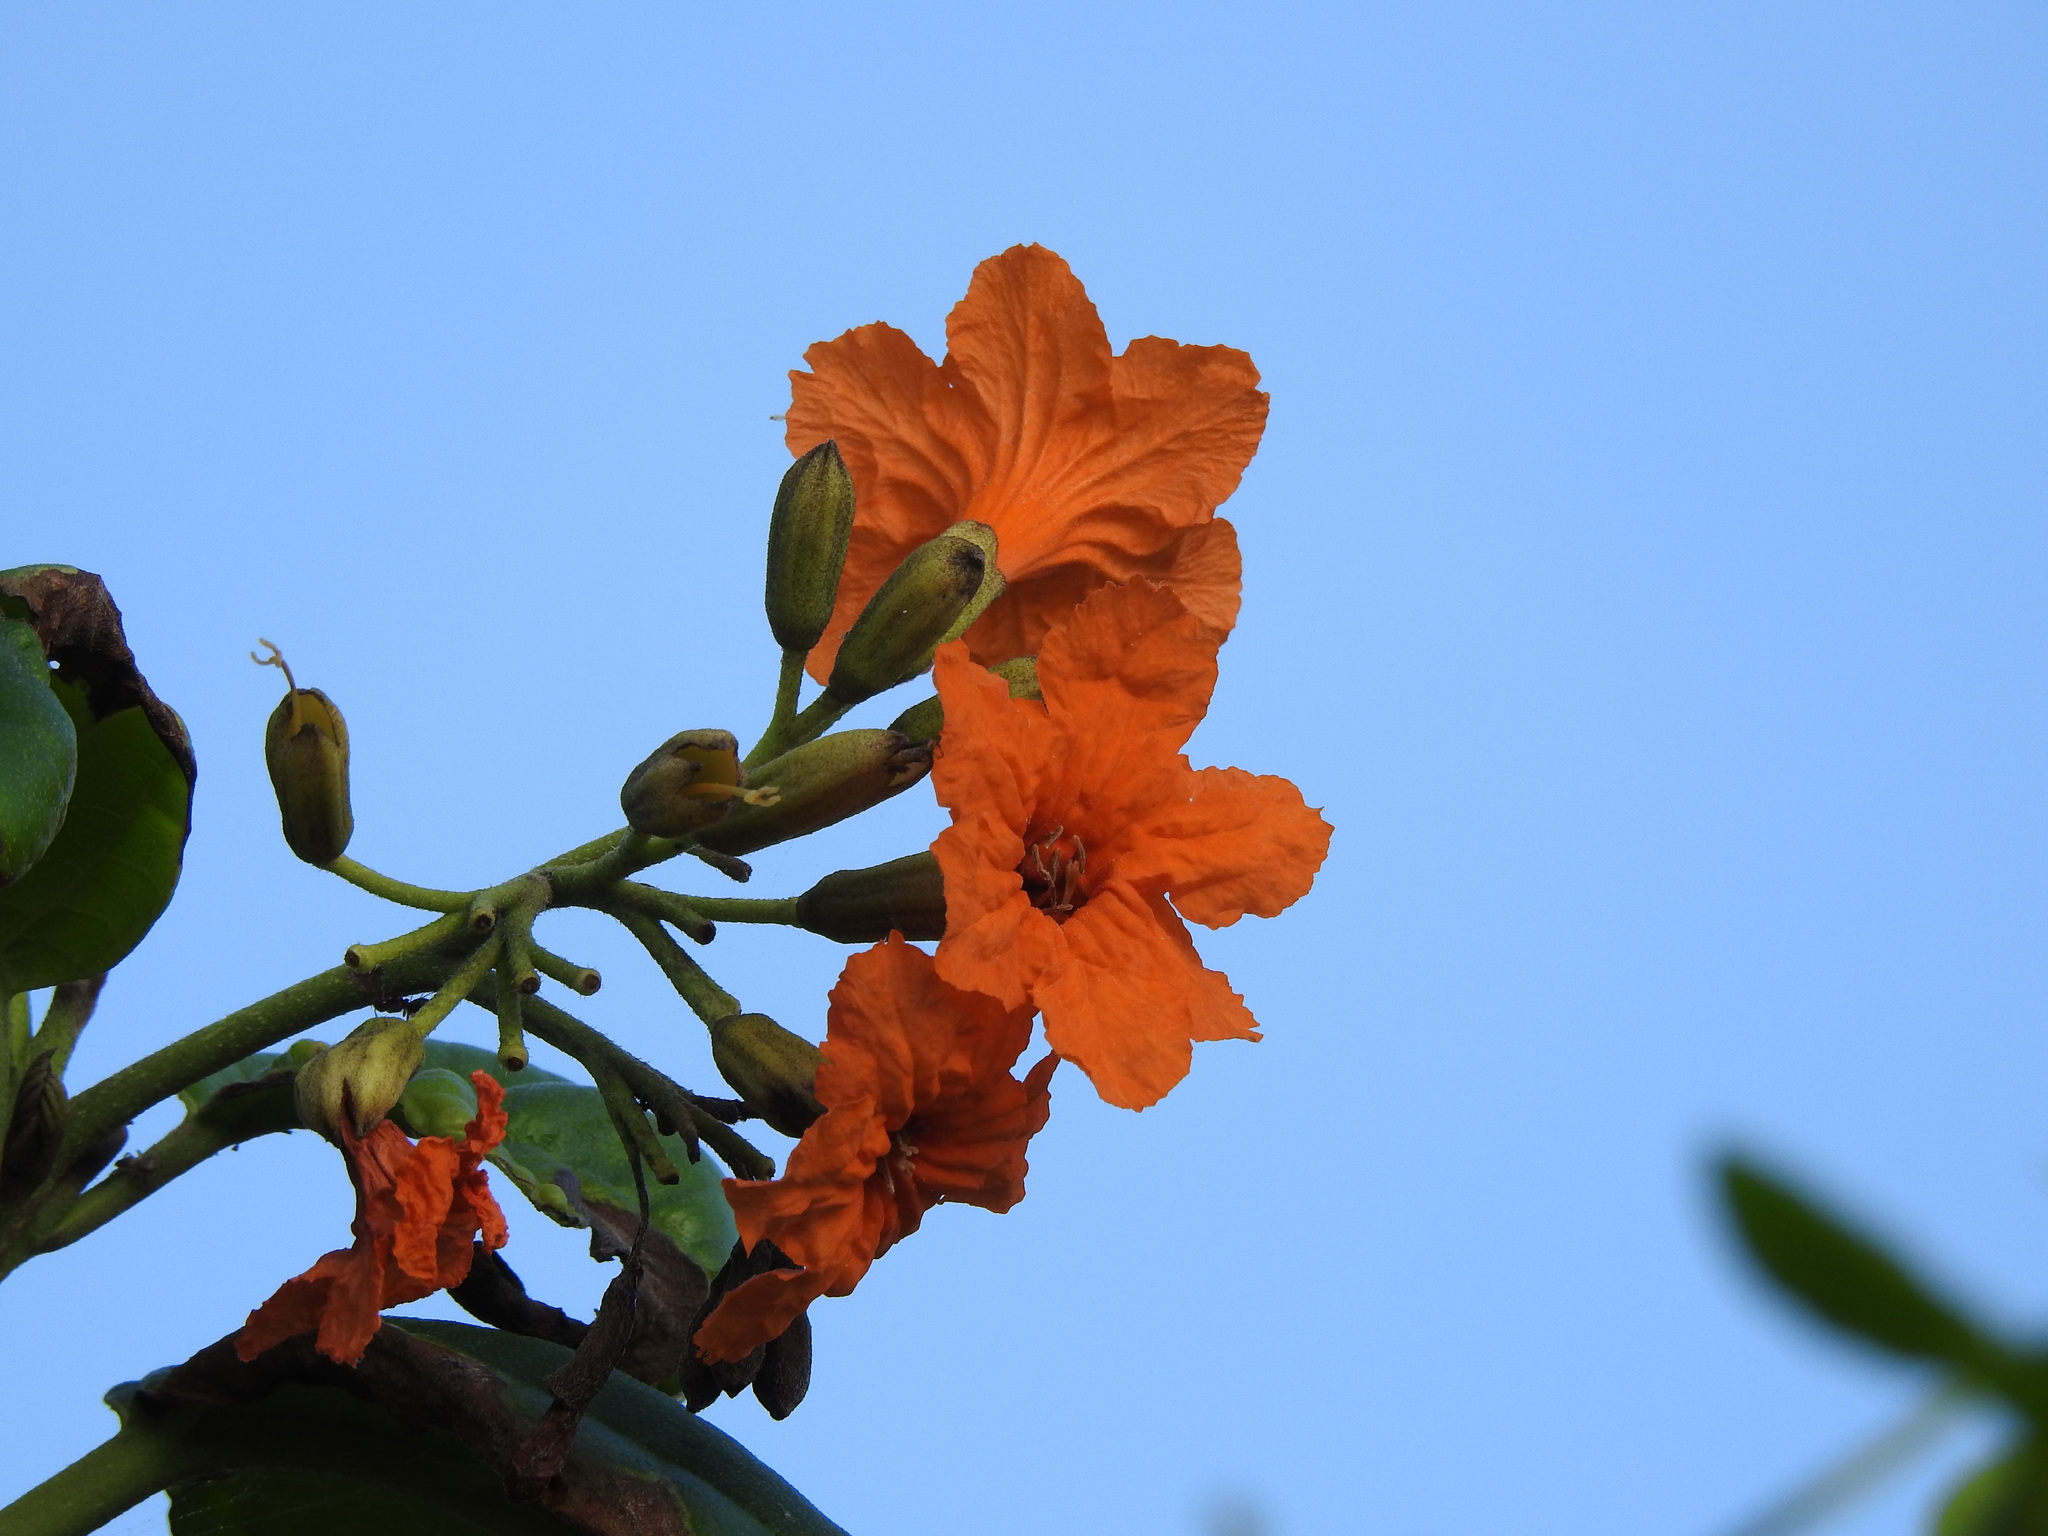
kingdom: Plantae
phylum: Tracheophyta
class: Magnoliopsida
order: Boraginales
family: Cordiaceae
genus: Cordia
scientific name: Cordia sebestena
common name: Largeleaf geigertree
